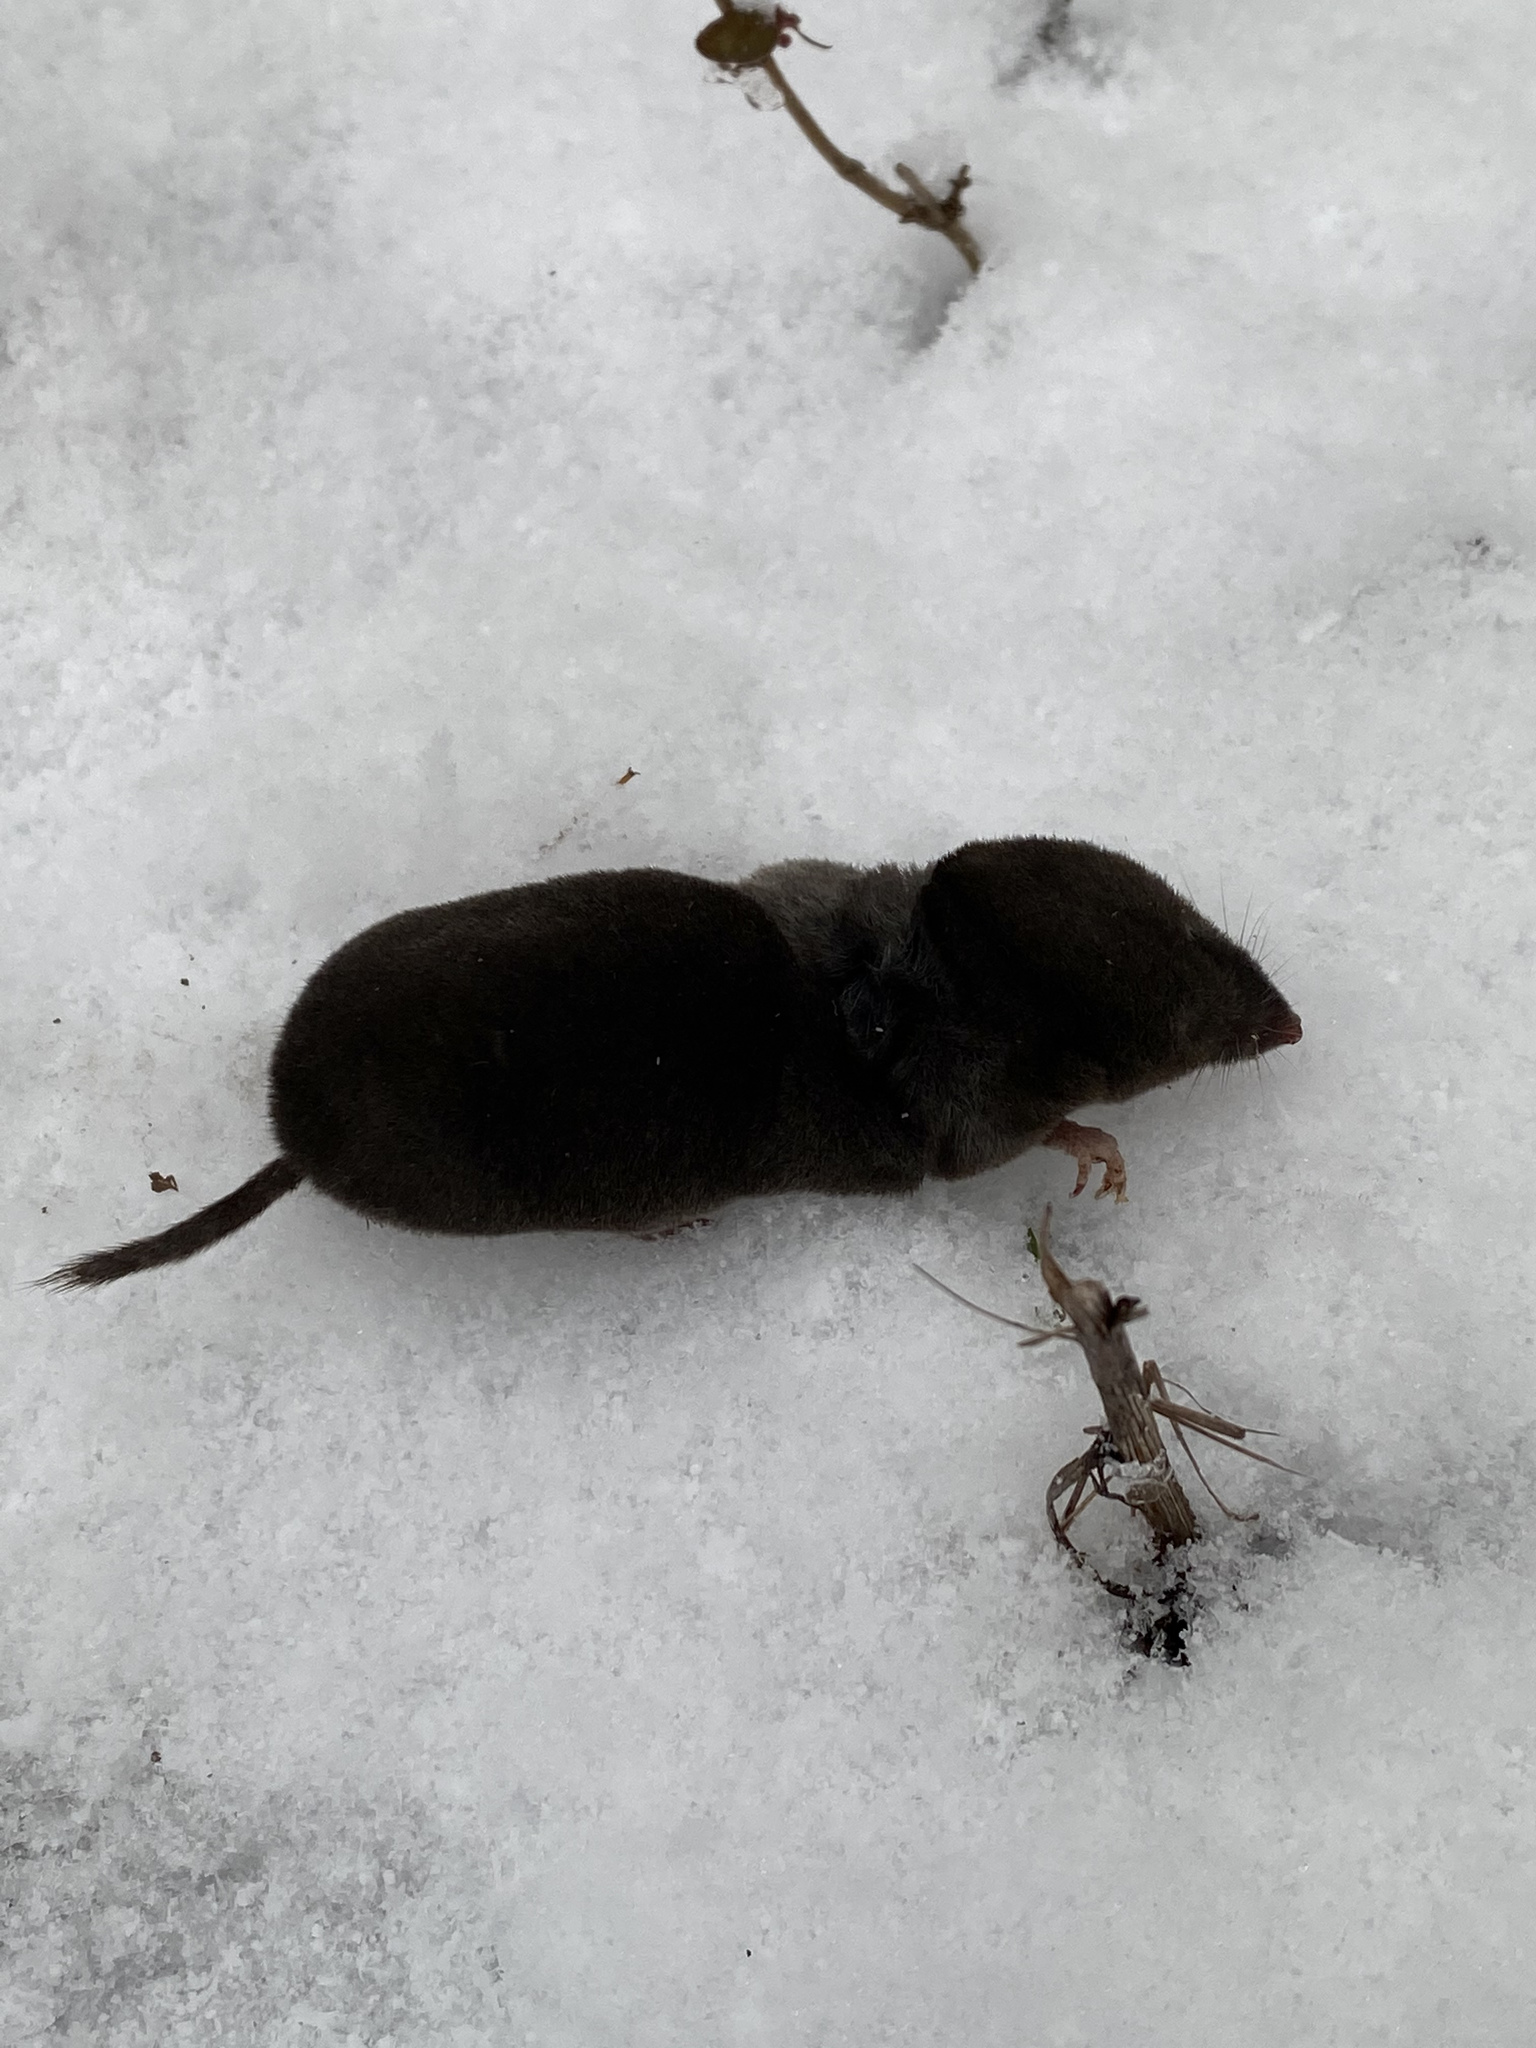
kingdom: Animalia
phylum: Chordata
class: Mammalia
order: Soricomorpha
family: Soricidae
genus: Blarina
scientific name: Blarina brevicauda
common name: Northern short-tailed shrew
